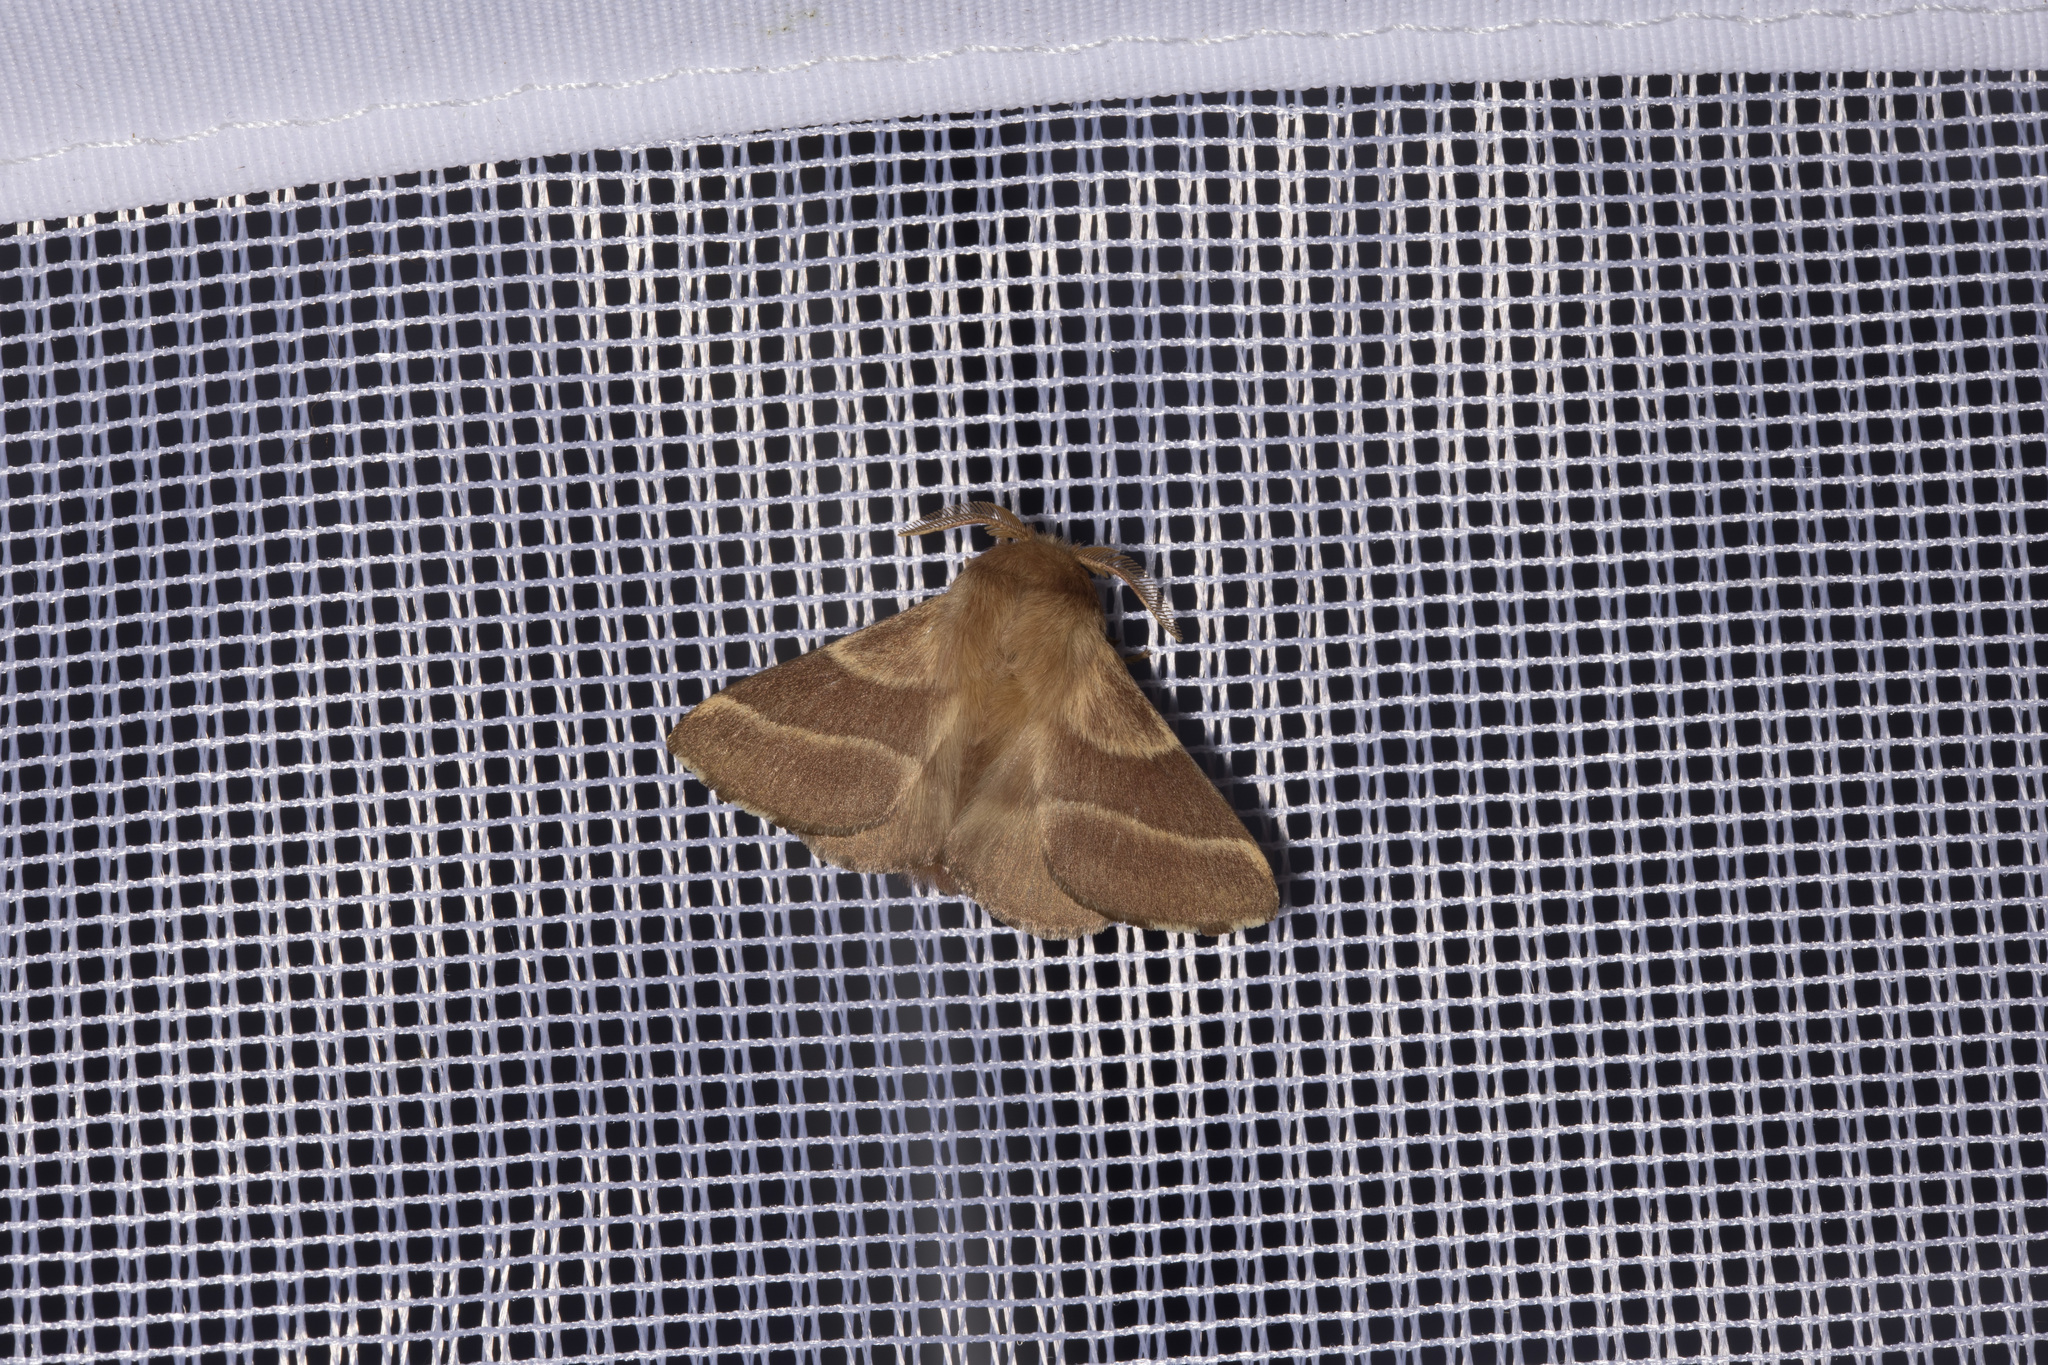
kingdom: Animalia
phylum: Arthropoda
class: Insecta
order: Lepidoptera
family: Lasiocampidae
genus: Malacosoma
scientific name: Malacosoma neustria
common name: The lackey
